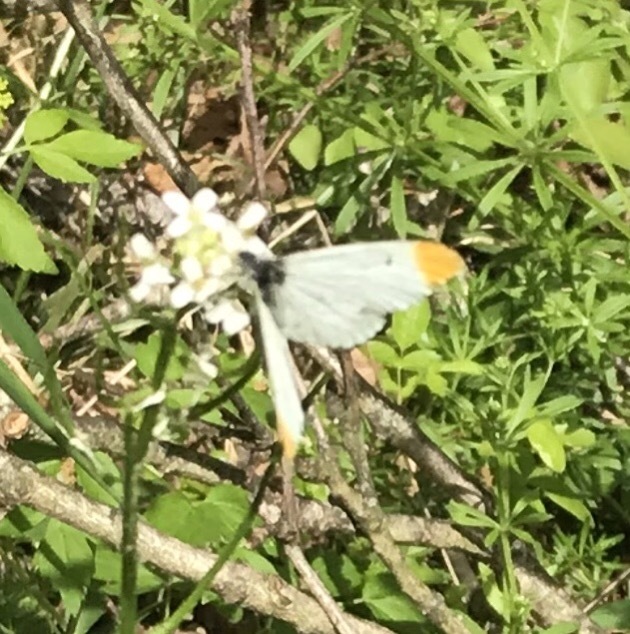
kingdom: Animalia
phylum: Arthropoda
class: Insecta
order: Lepidoptera
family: Pieridae
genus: Anthocharis
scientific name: Anthocharis midea
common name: Falcate orangetip
